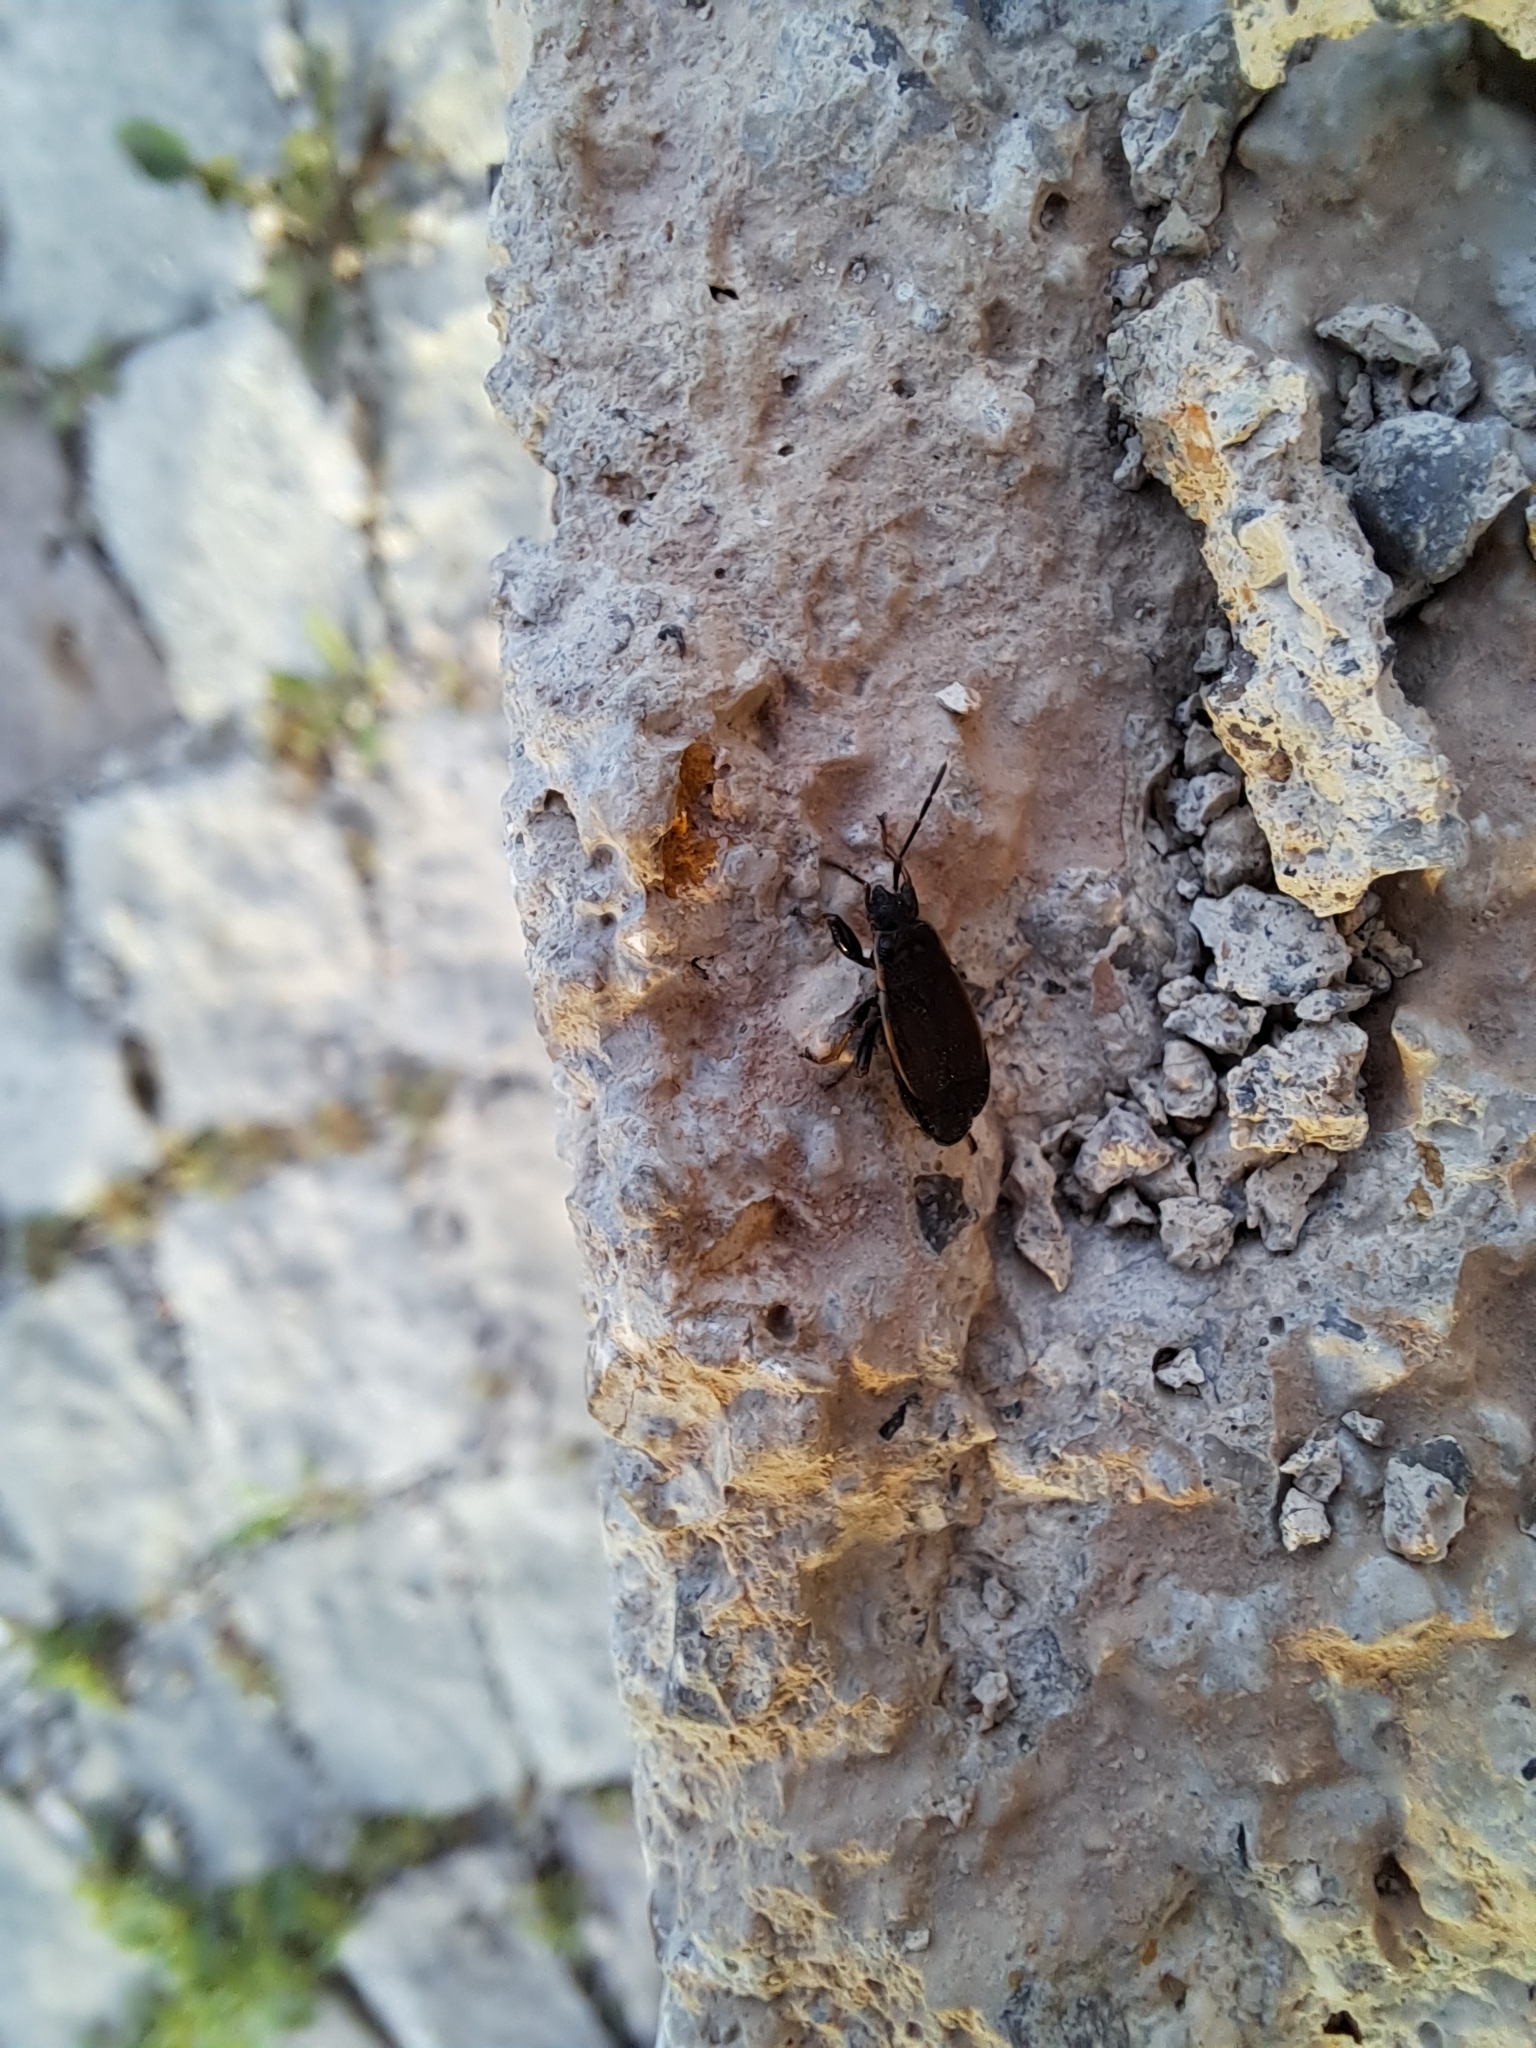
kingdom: Animalia
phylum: Arthropoda
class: Insecta
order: Hemiptera
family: Pyrrhocoridae
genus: Pyrrhocoris
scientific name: Pyrrhocoris marginatus
